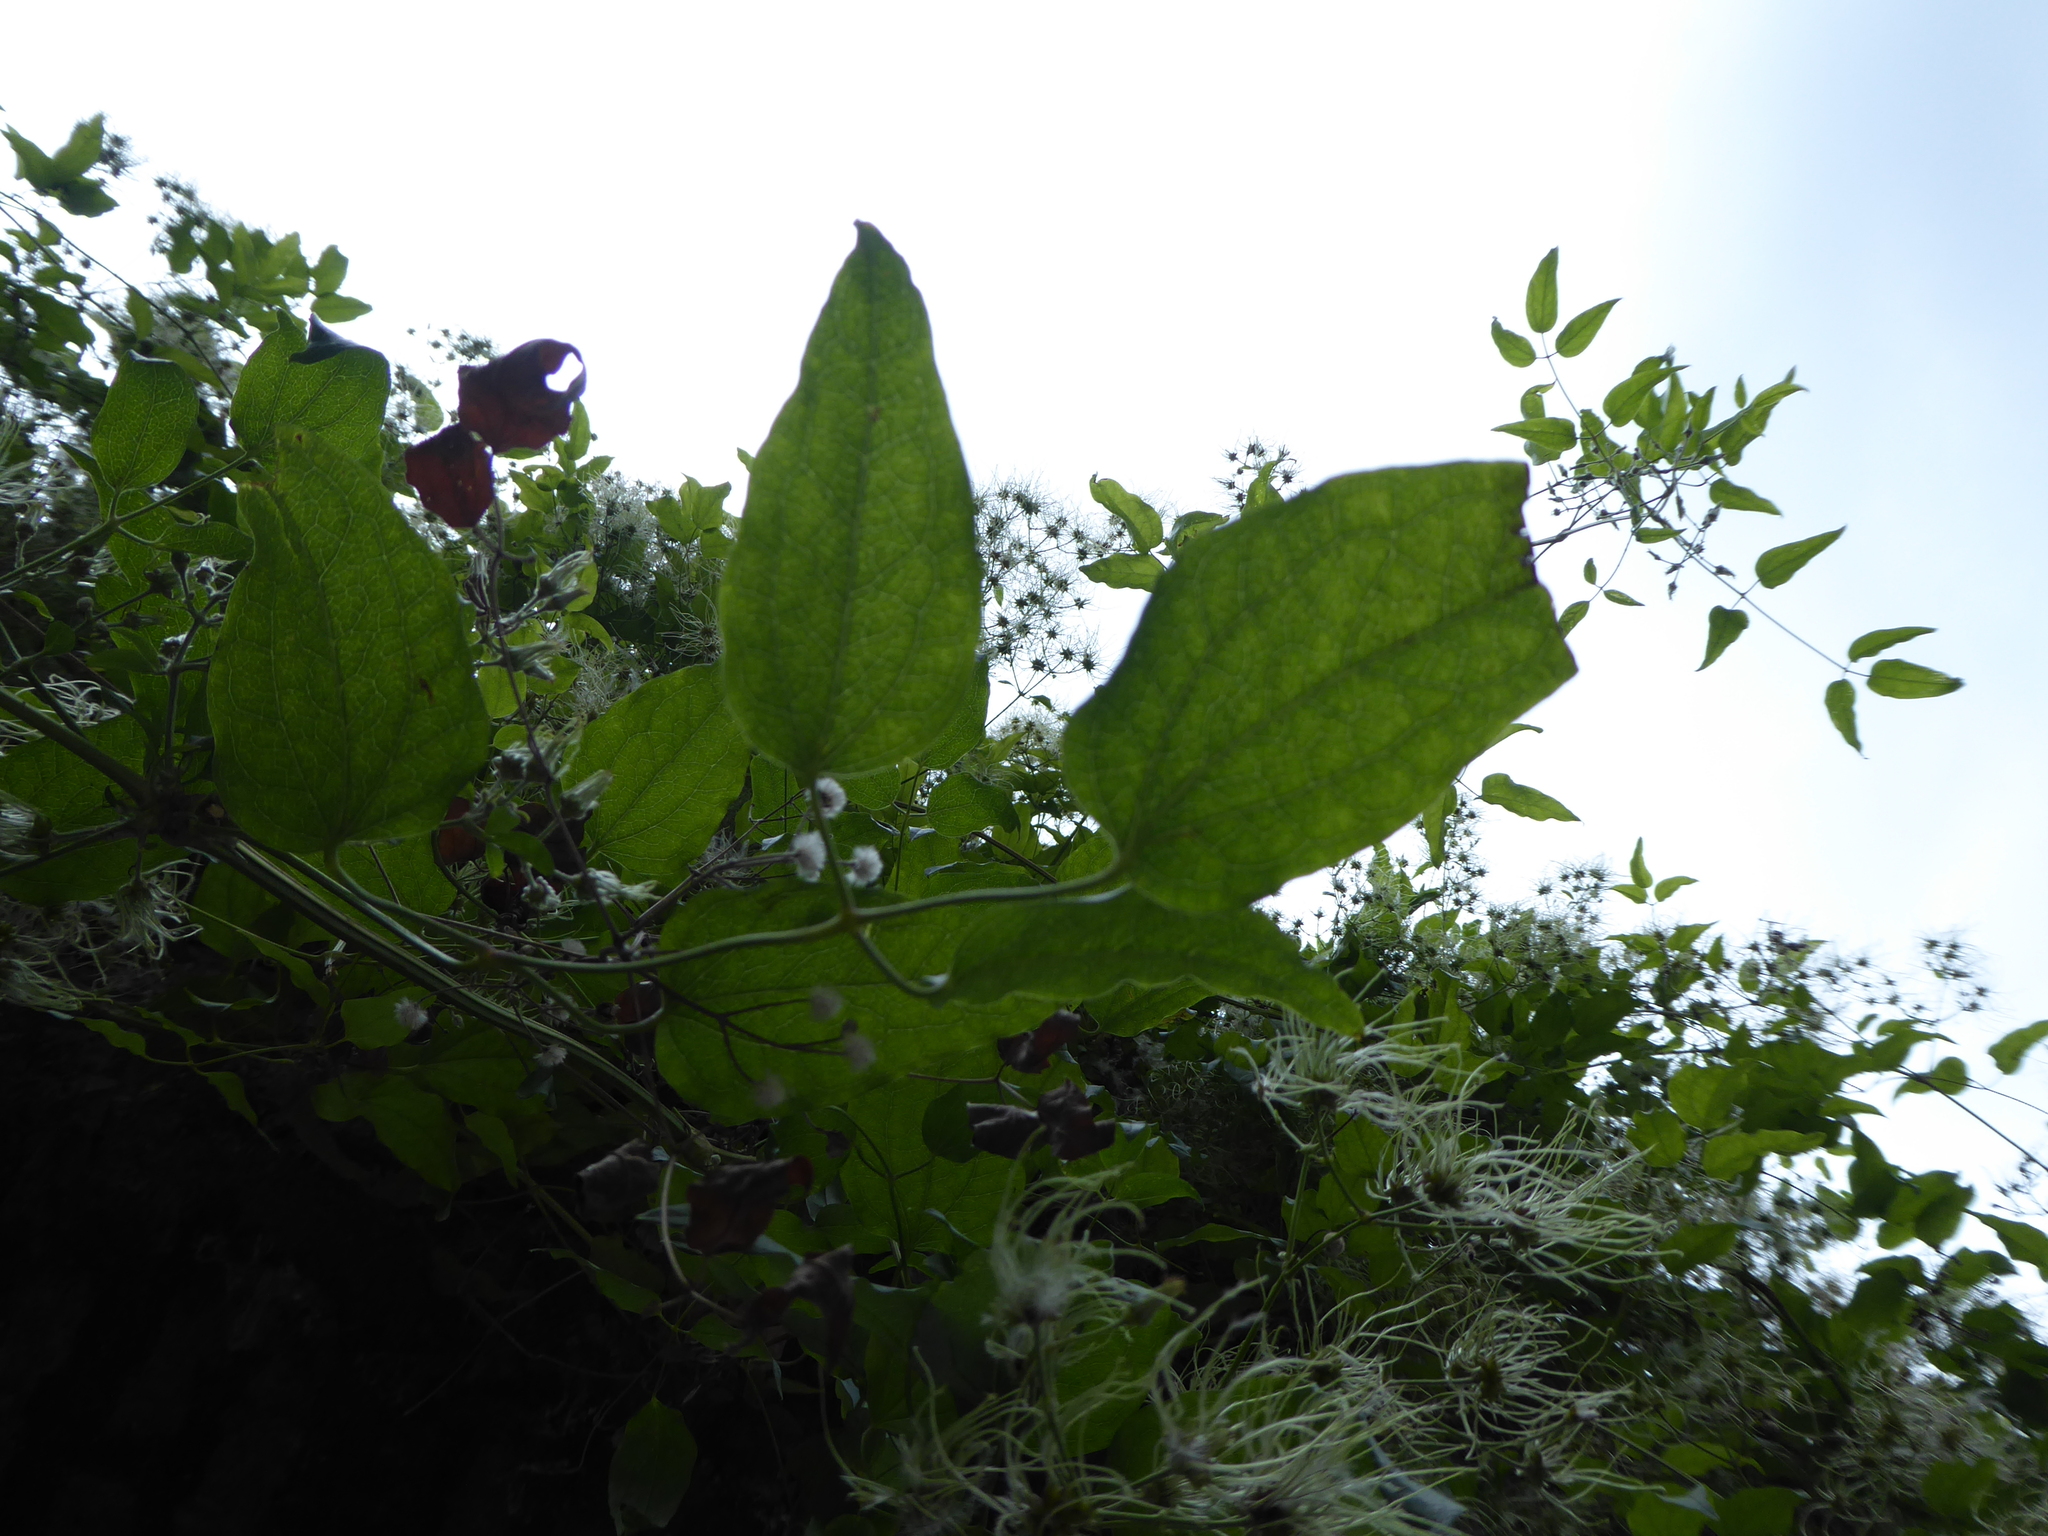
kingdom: Plantae
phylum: Tracheophyta
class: Magnoliopsida
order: Ranunculales
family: Ranunculaceae
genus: Clematis
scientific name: Clematis vitalba
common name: Evergreen clematis
